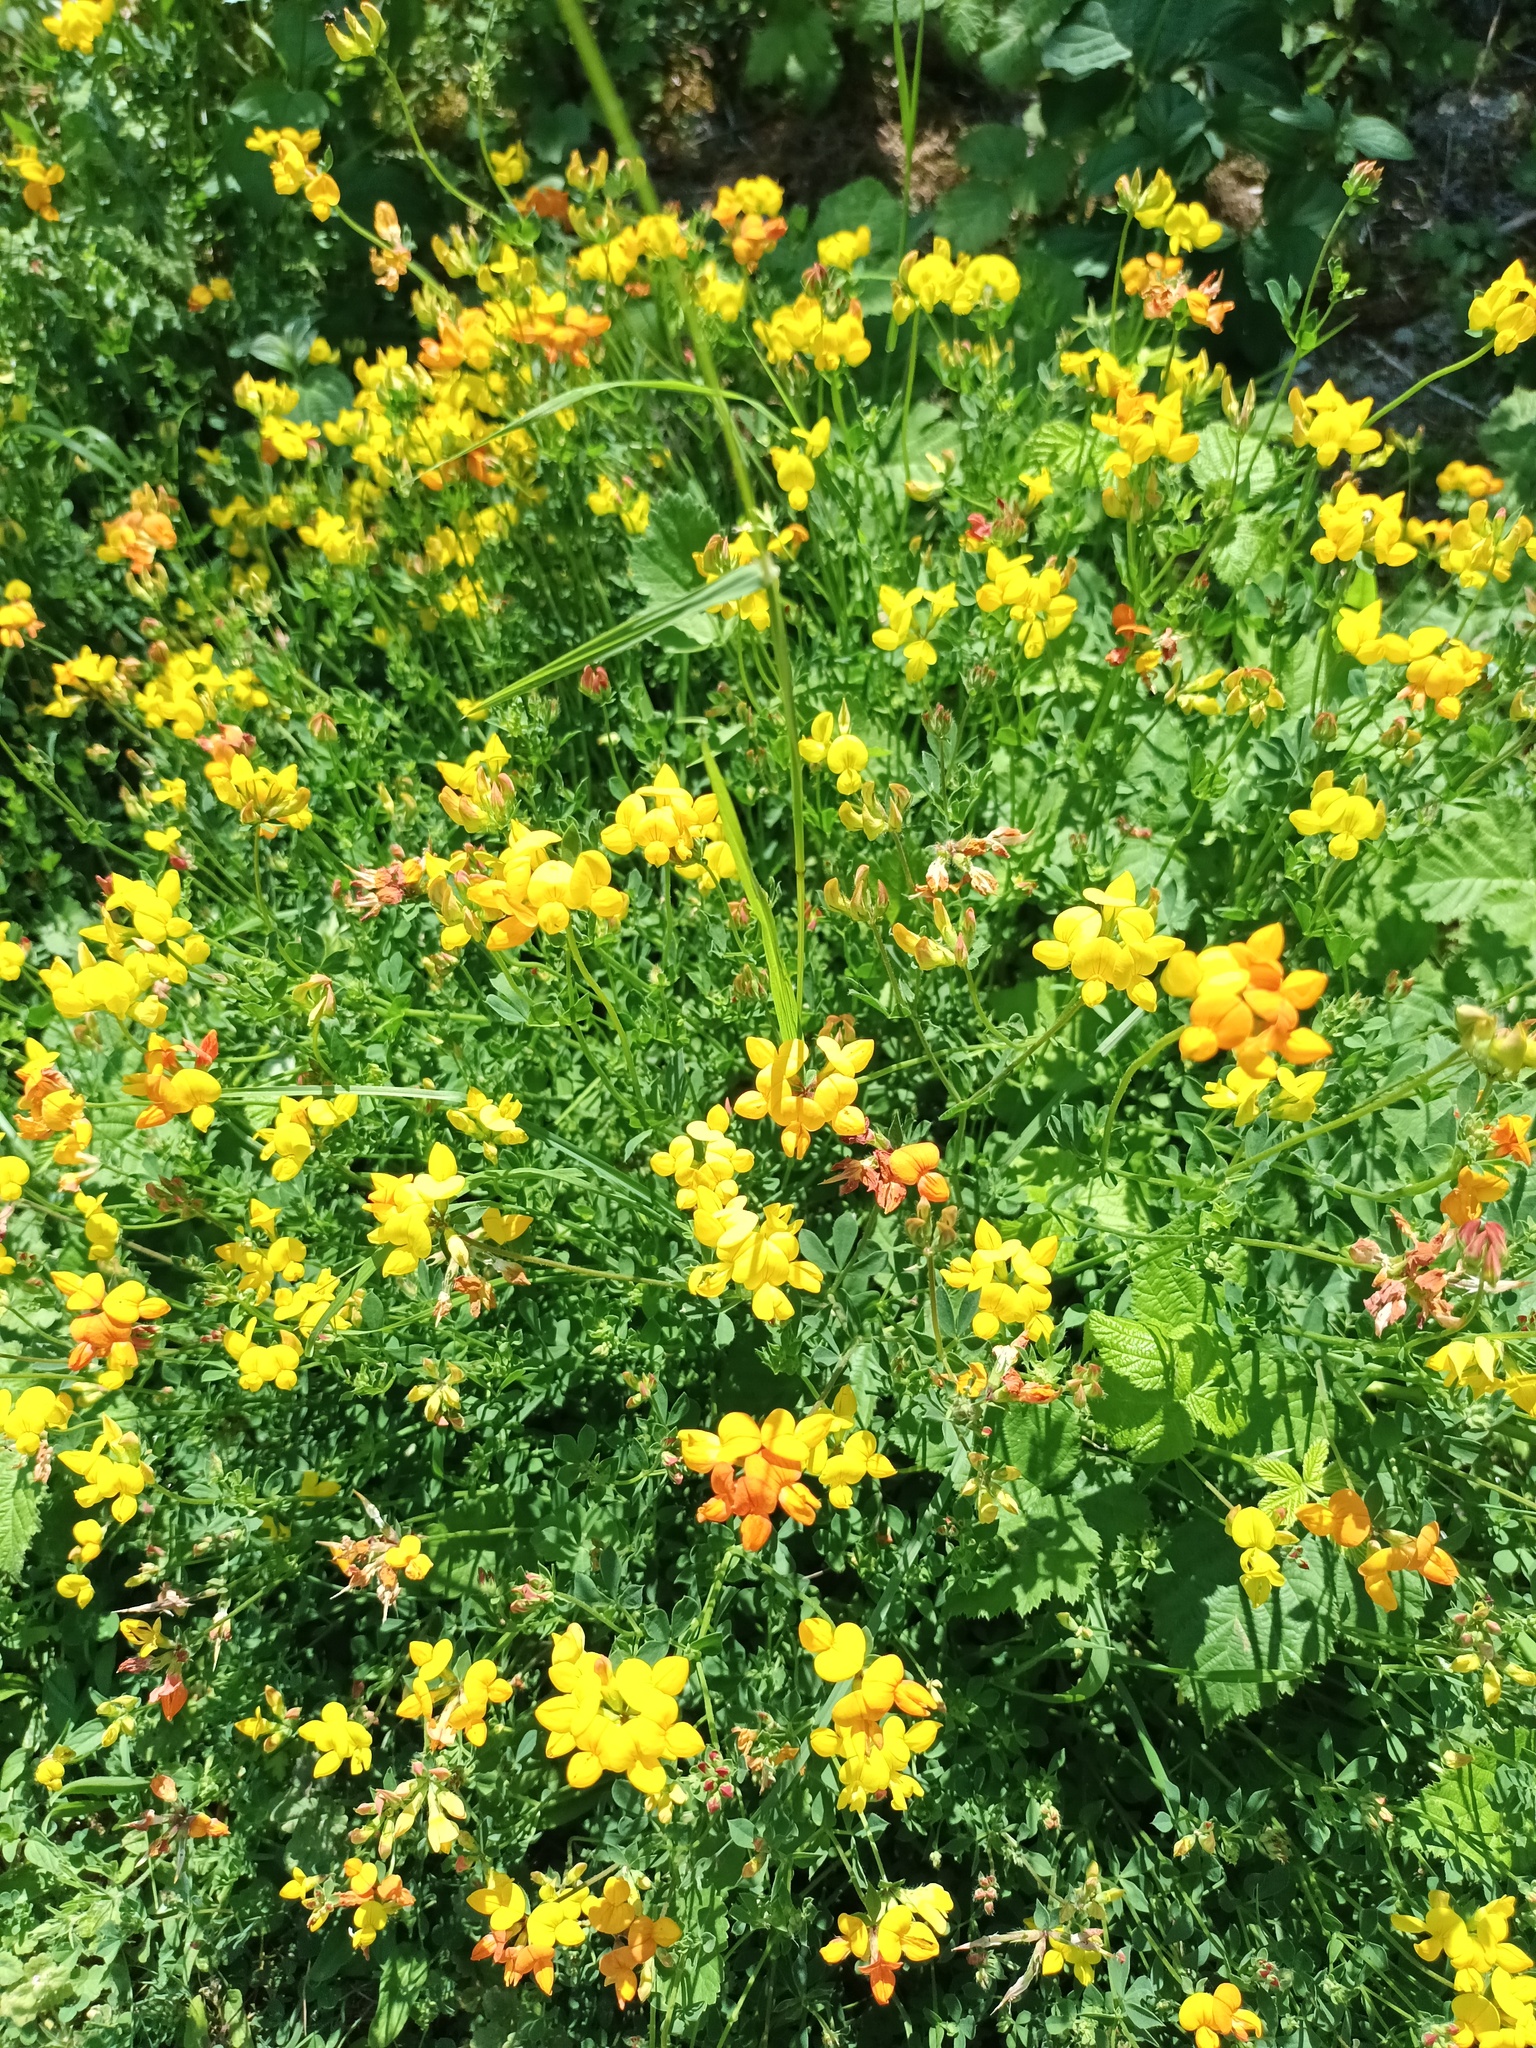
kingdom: Plantae
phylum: Tracheophyta
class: Magnoliopsida
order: Fabales
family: Fabaceae
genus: Lotus
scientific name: Lotus corniculatus
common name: Common bird's-foot-trefoil
